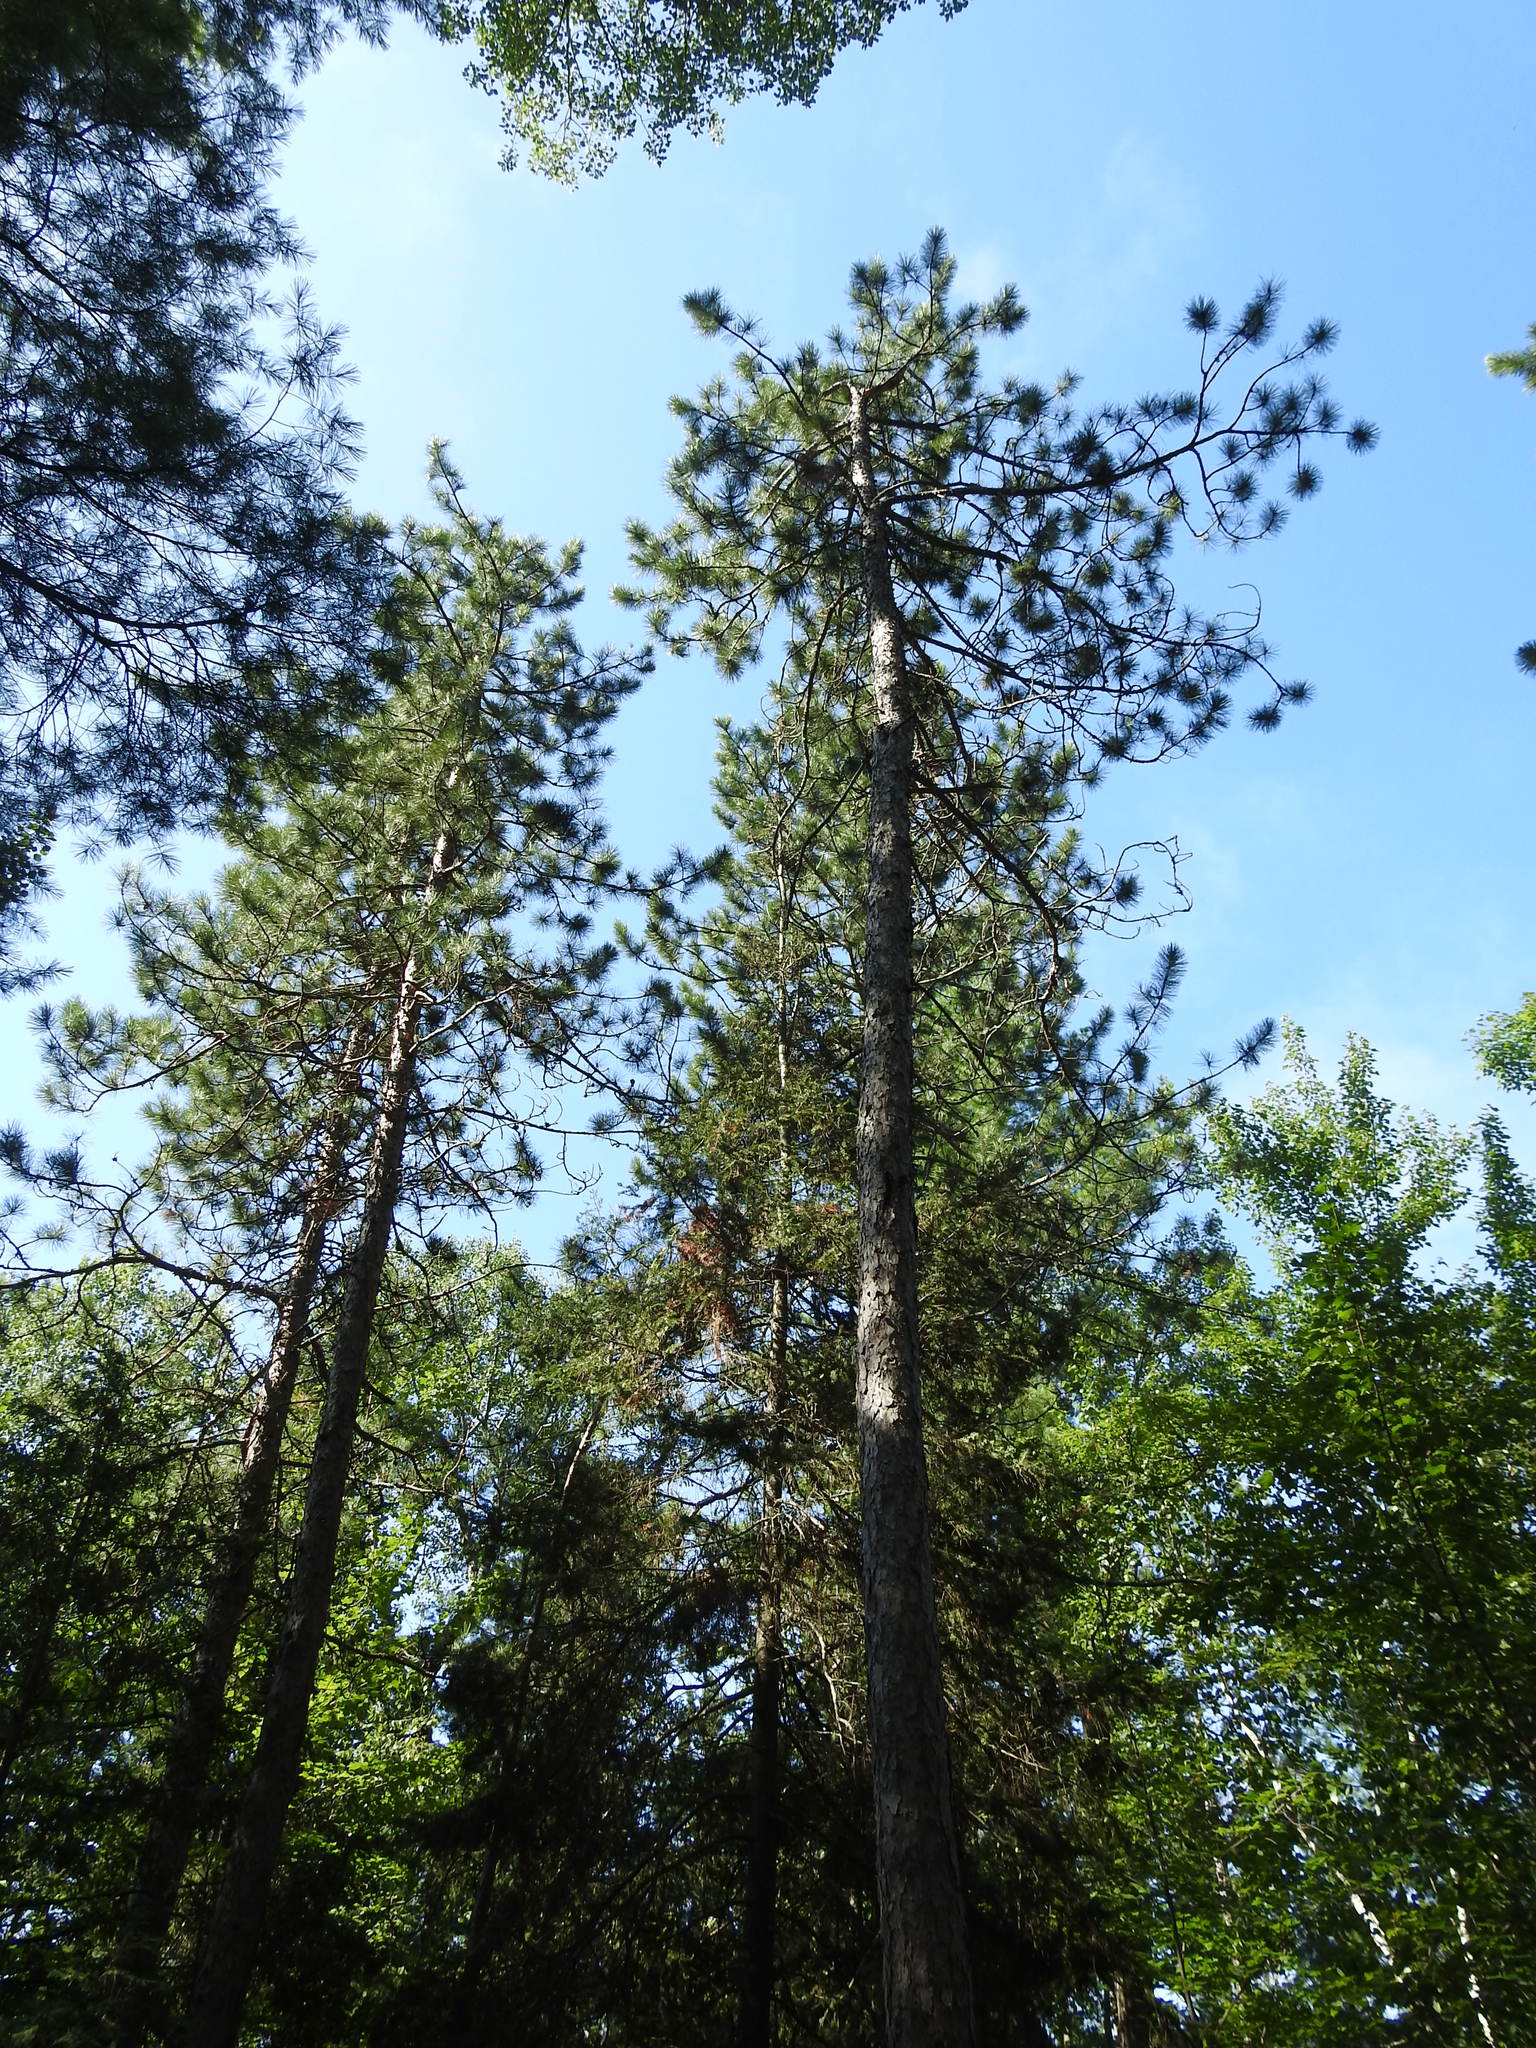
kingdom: Plantae
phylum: Tracheophyta
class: Pinopsida
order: Pinales
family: Pinaceae
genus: Pinus
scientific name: Pinus resinosa
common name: Norway pine
